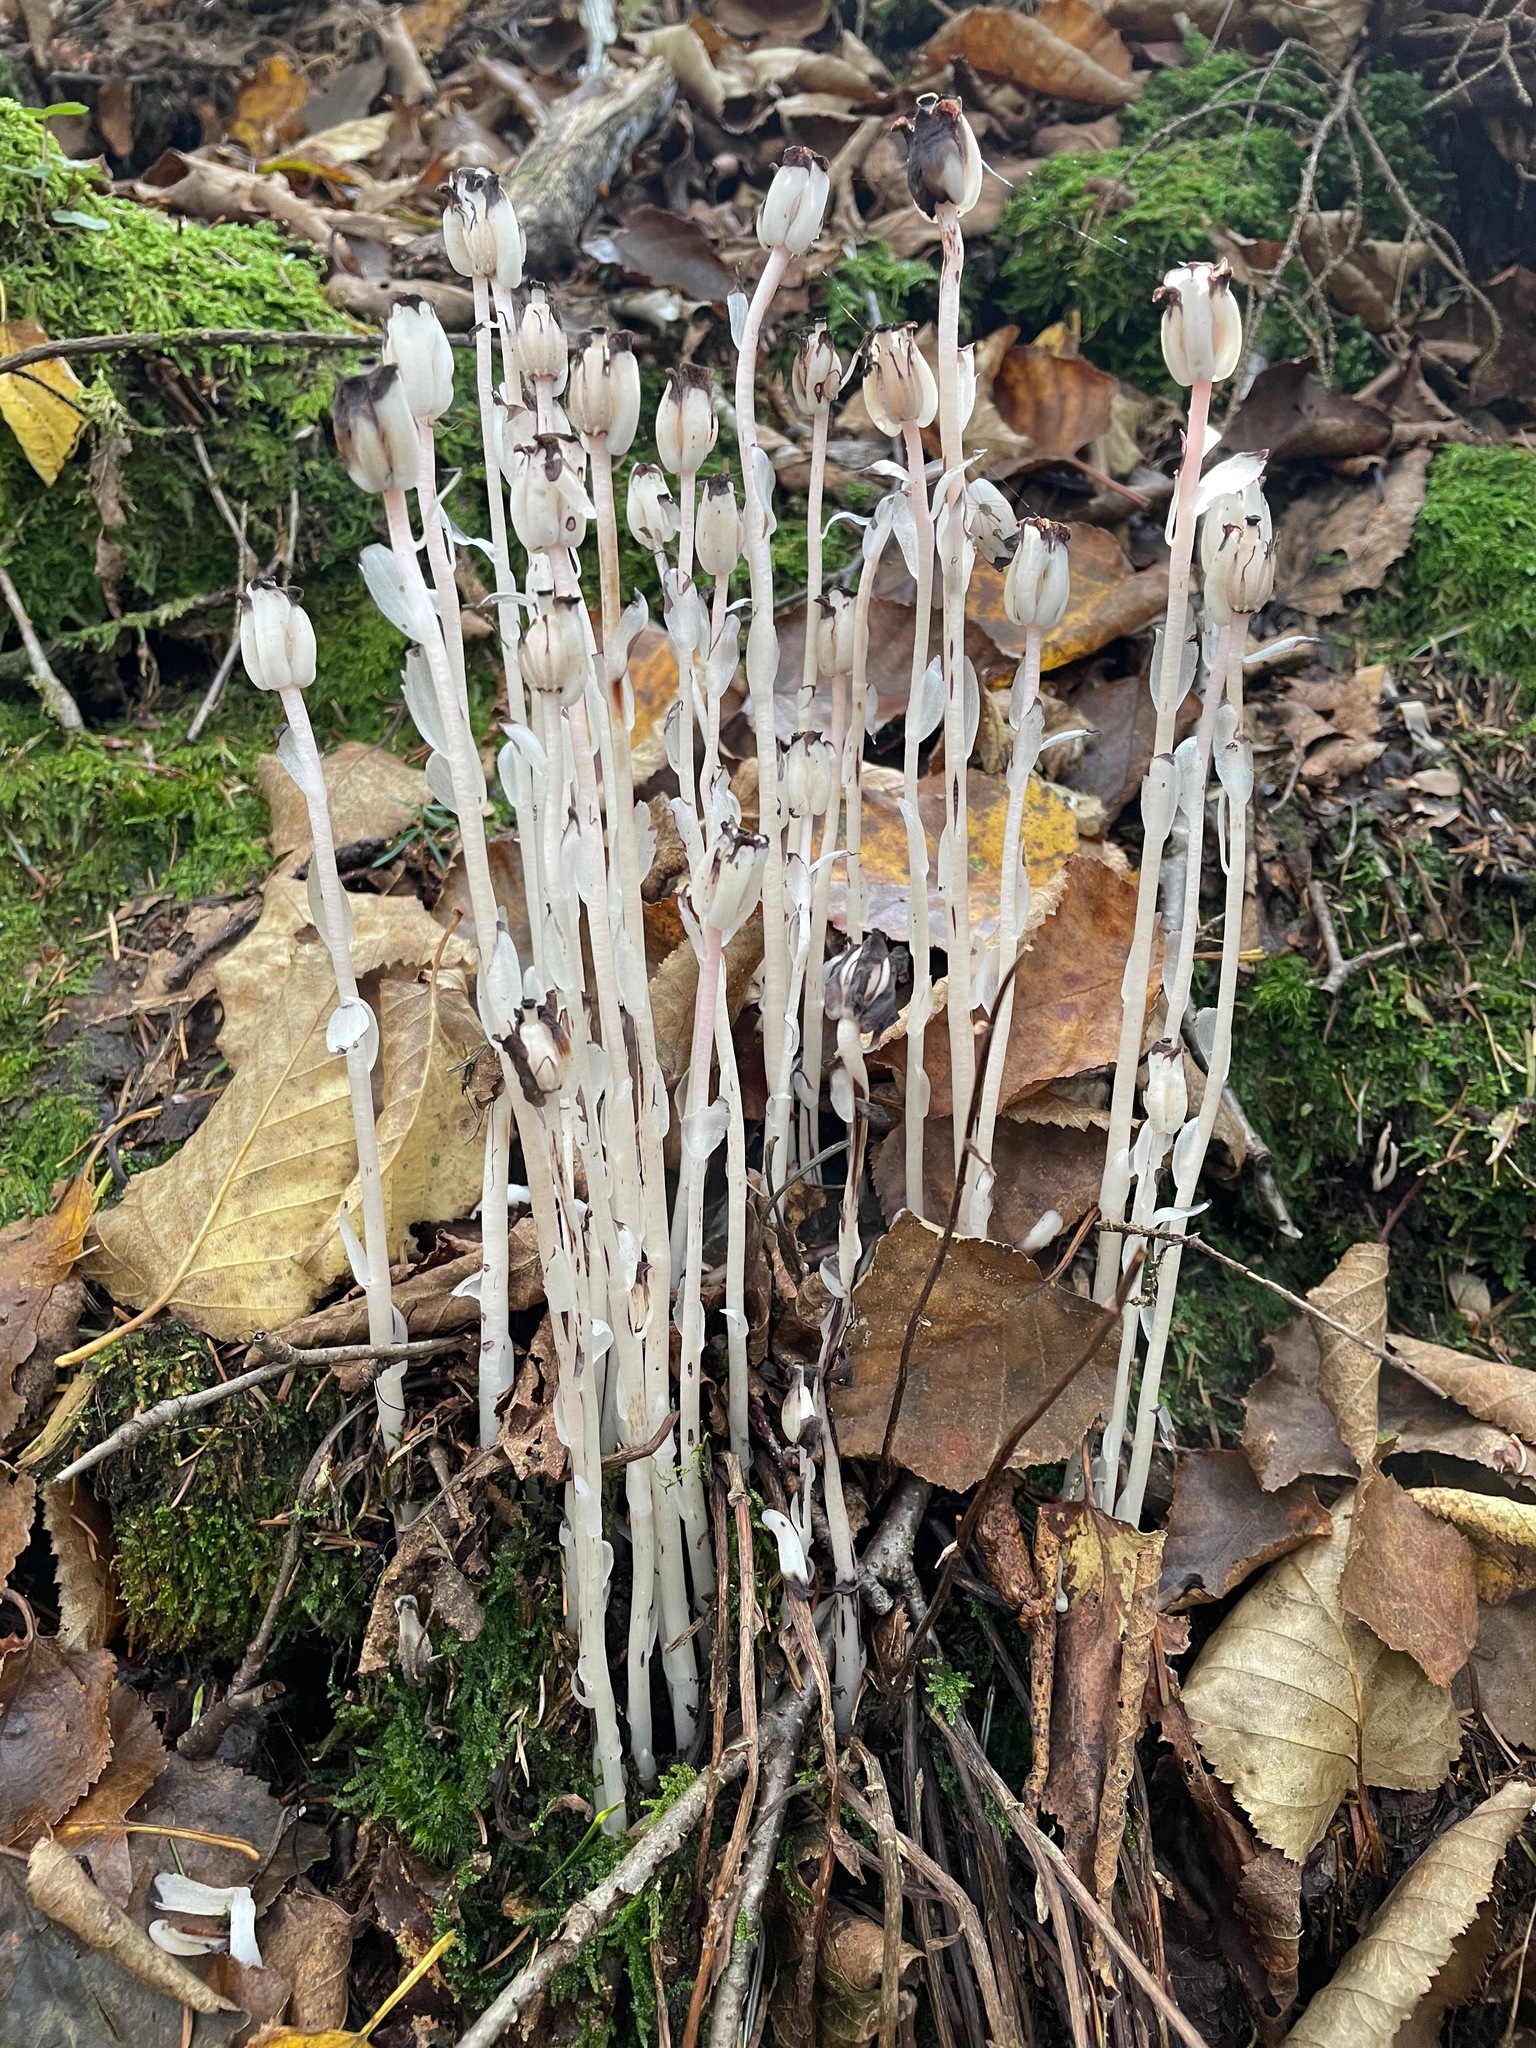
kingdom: Plantae
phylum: Tracheophyta
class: Magnoliopsida
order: Ericales
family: Ericaceae
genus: Monotropa
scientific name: Monotropa uniflora
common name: Convulsion root
